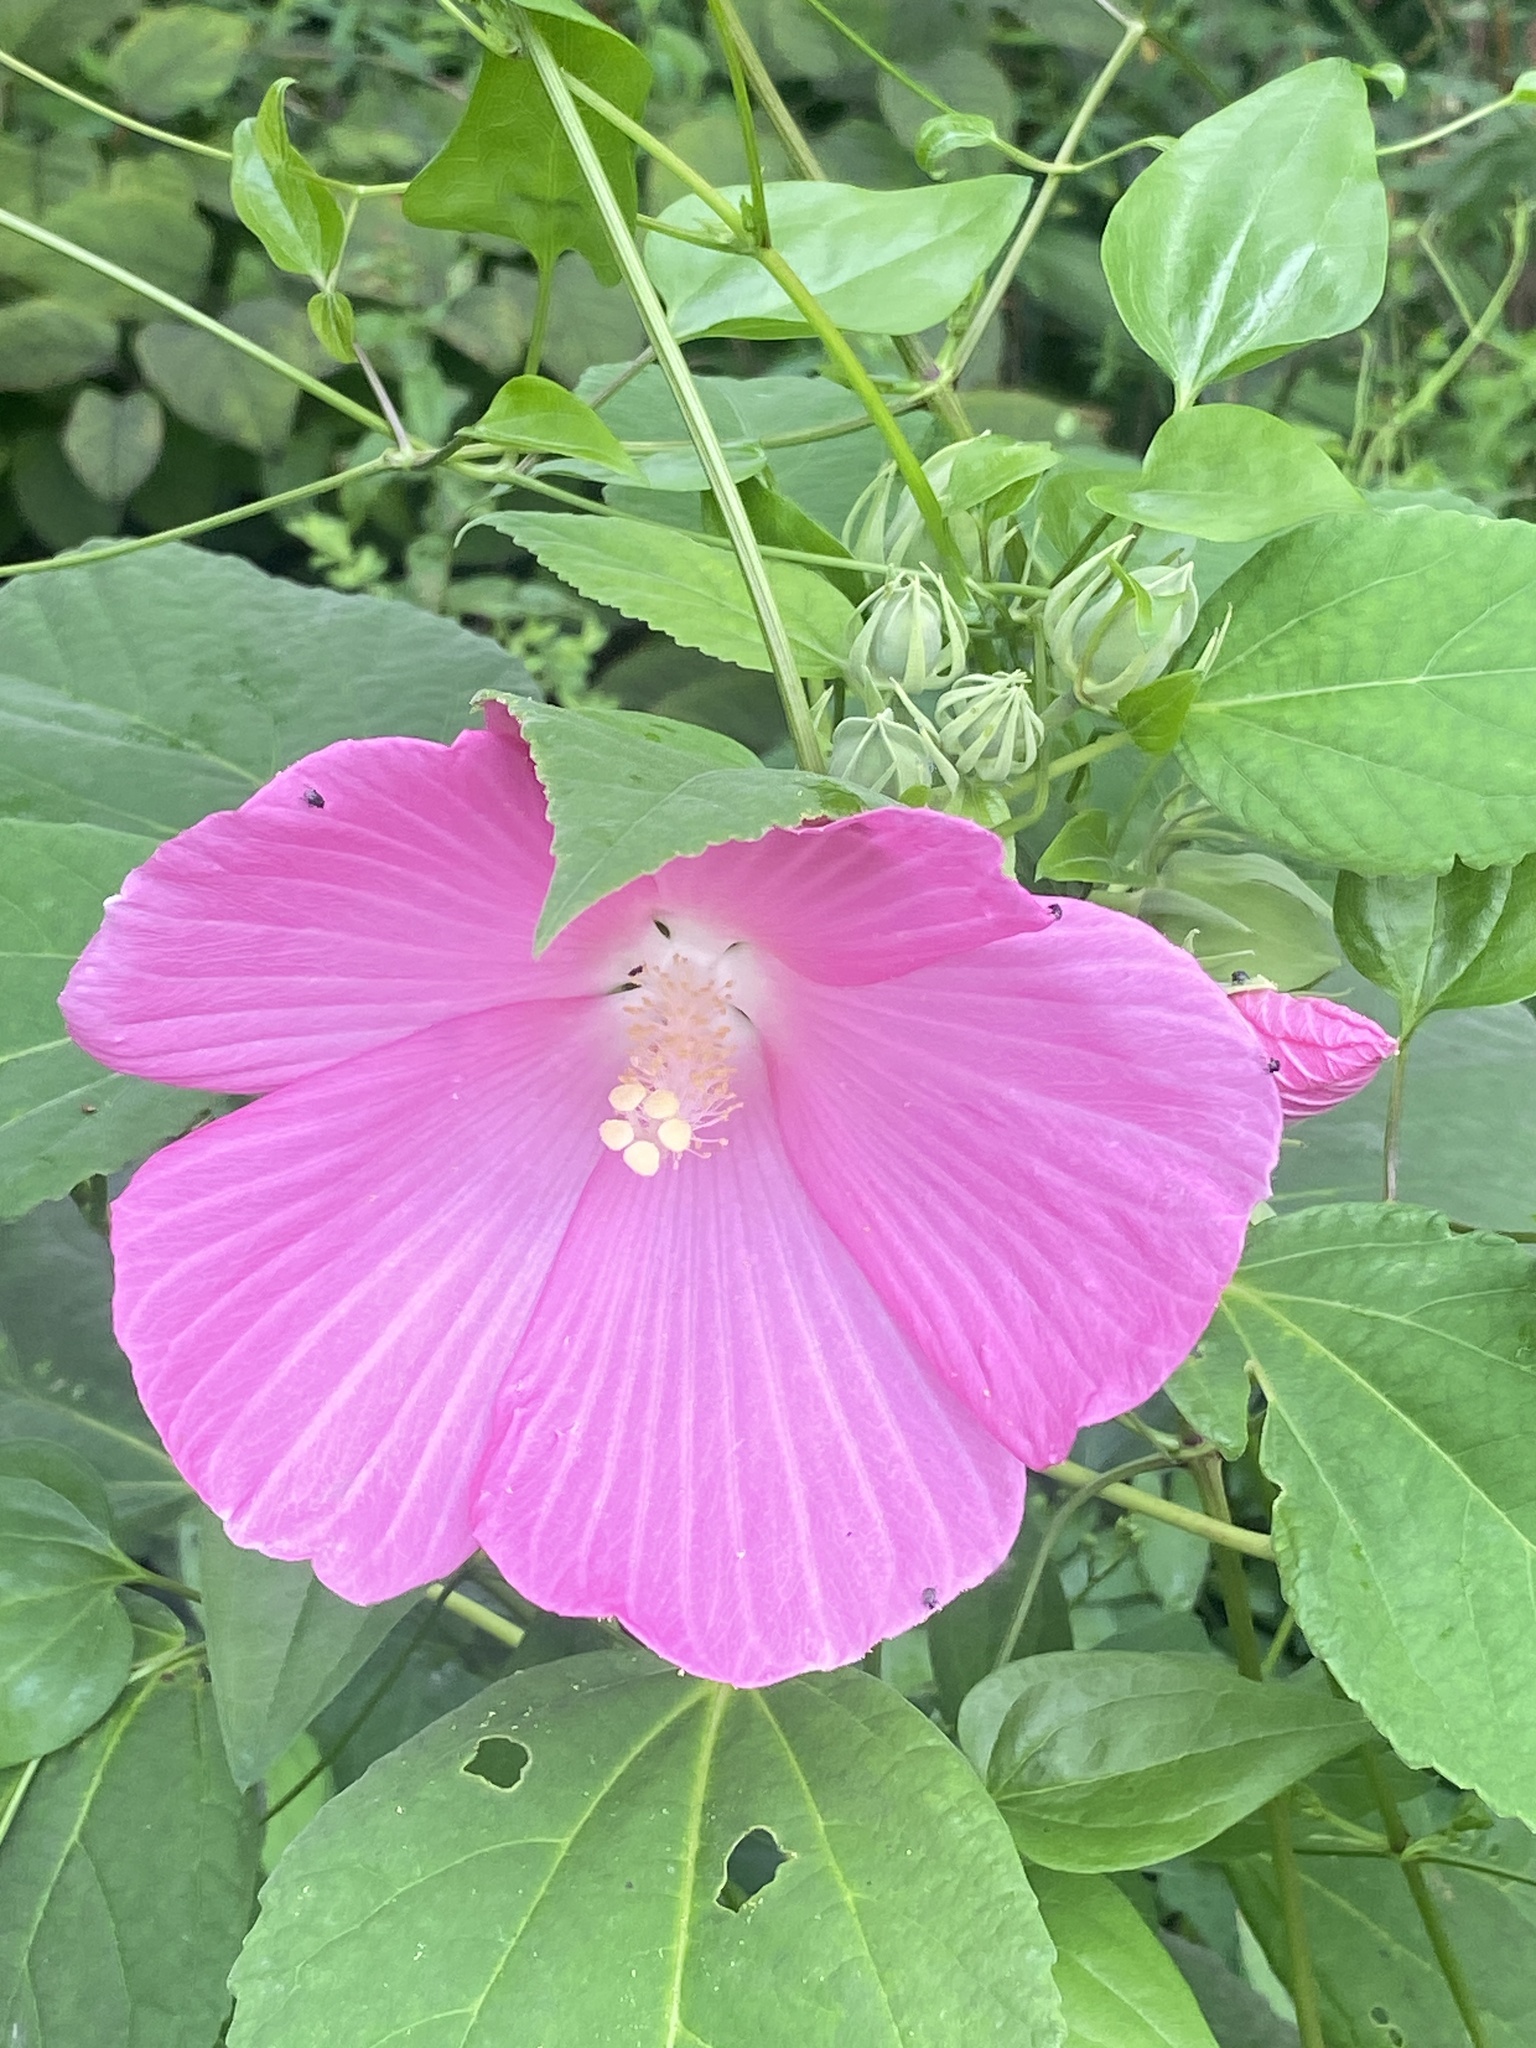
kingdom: Plantae
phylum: Tracheophyta
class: Magnoliopsida
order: Malvales
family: Malvaceae
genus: Hibiscus
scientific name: Hibiscus moscheutos
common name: Common rose-mallow
